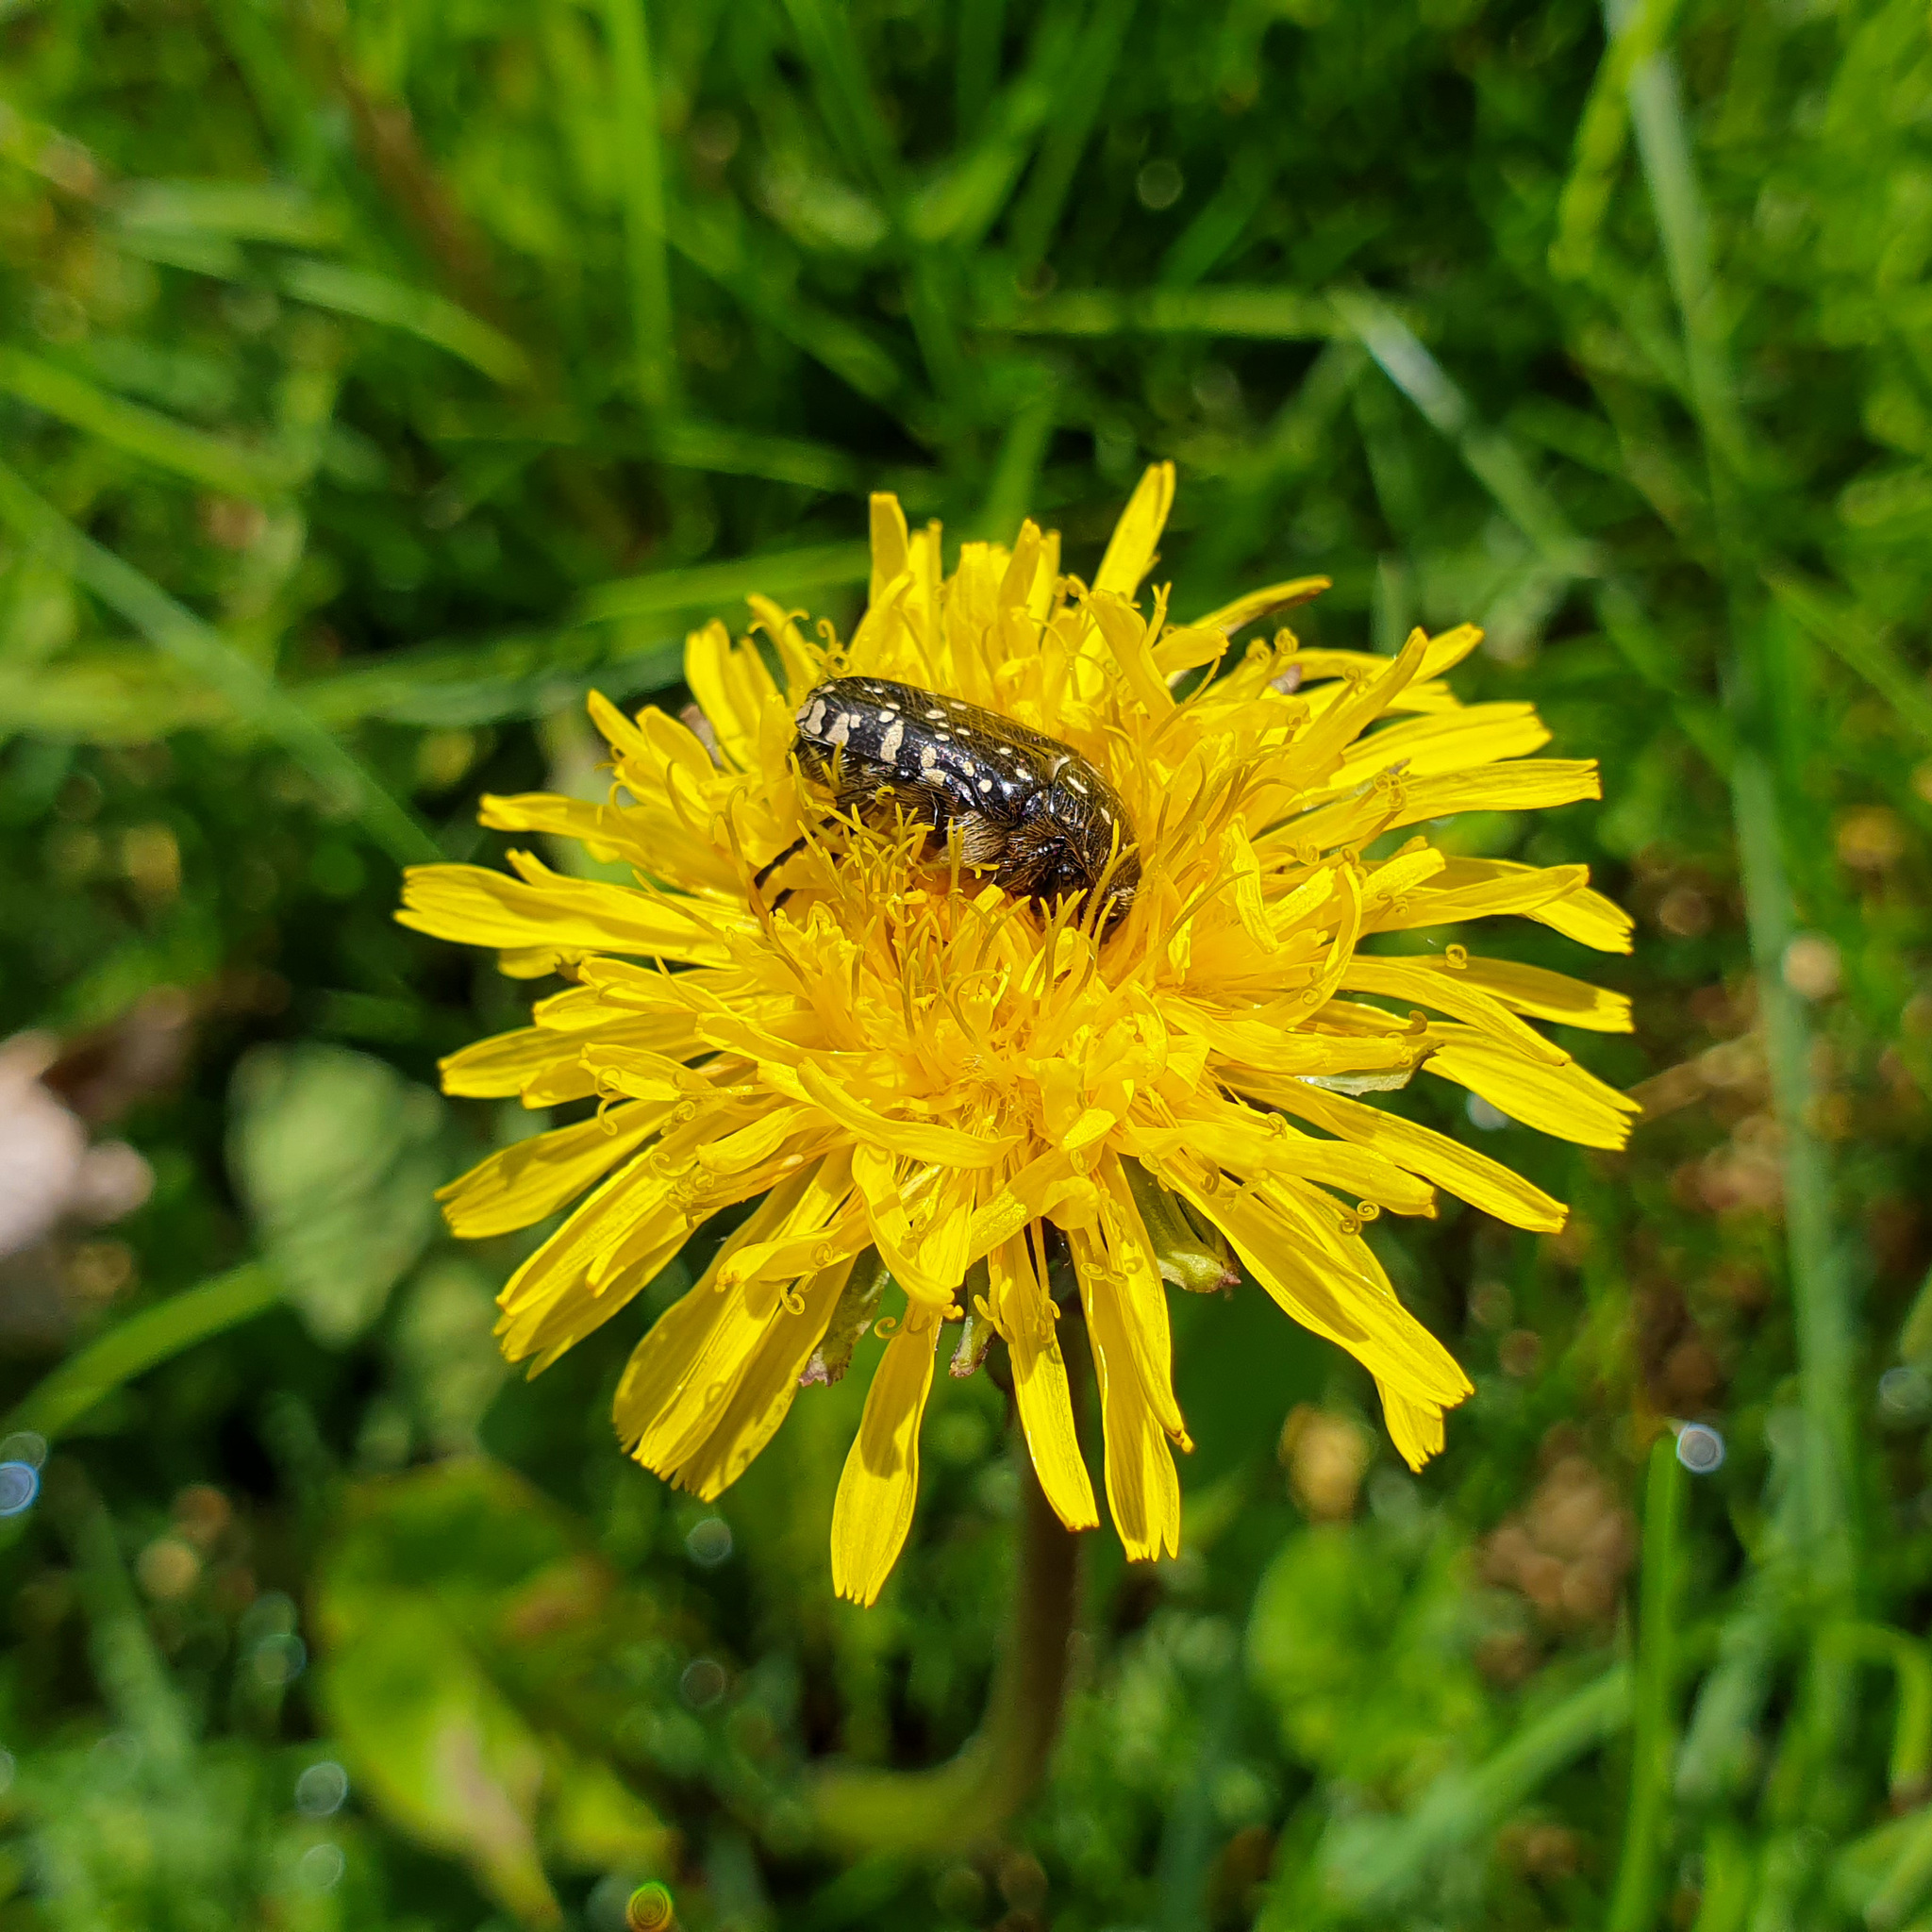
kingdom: Animalia
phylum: Arthropoda
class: Insecta
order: Coleoptera
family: Scarabaeidae
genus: Oxythyrea
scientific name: Oxythyrea funesta
